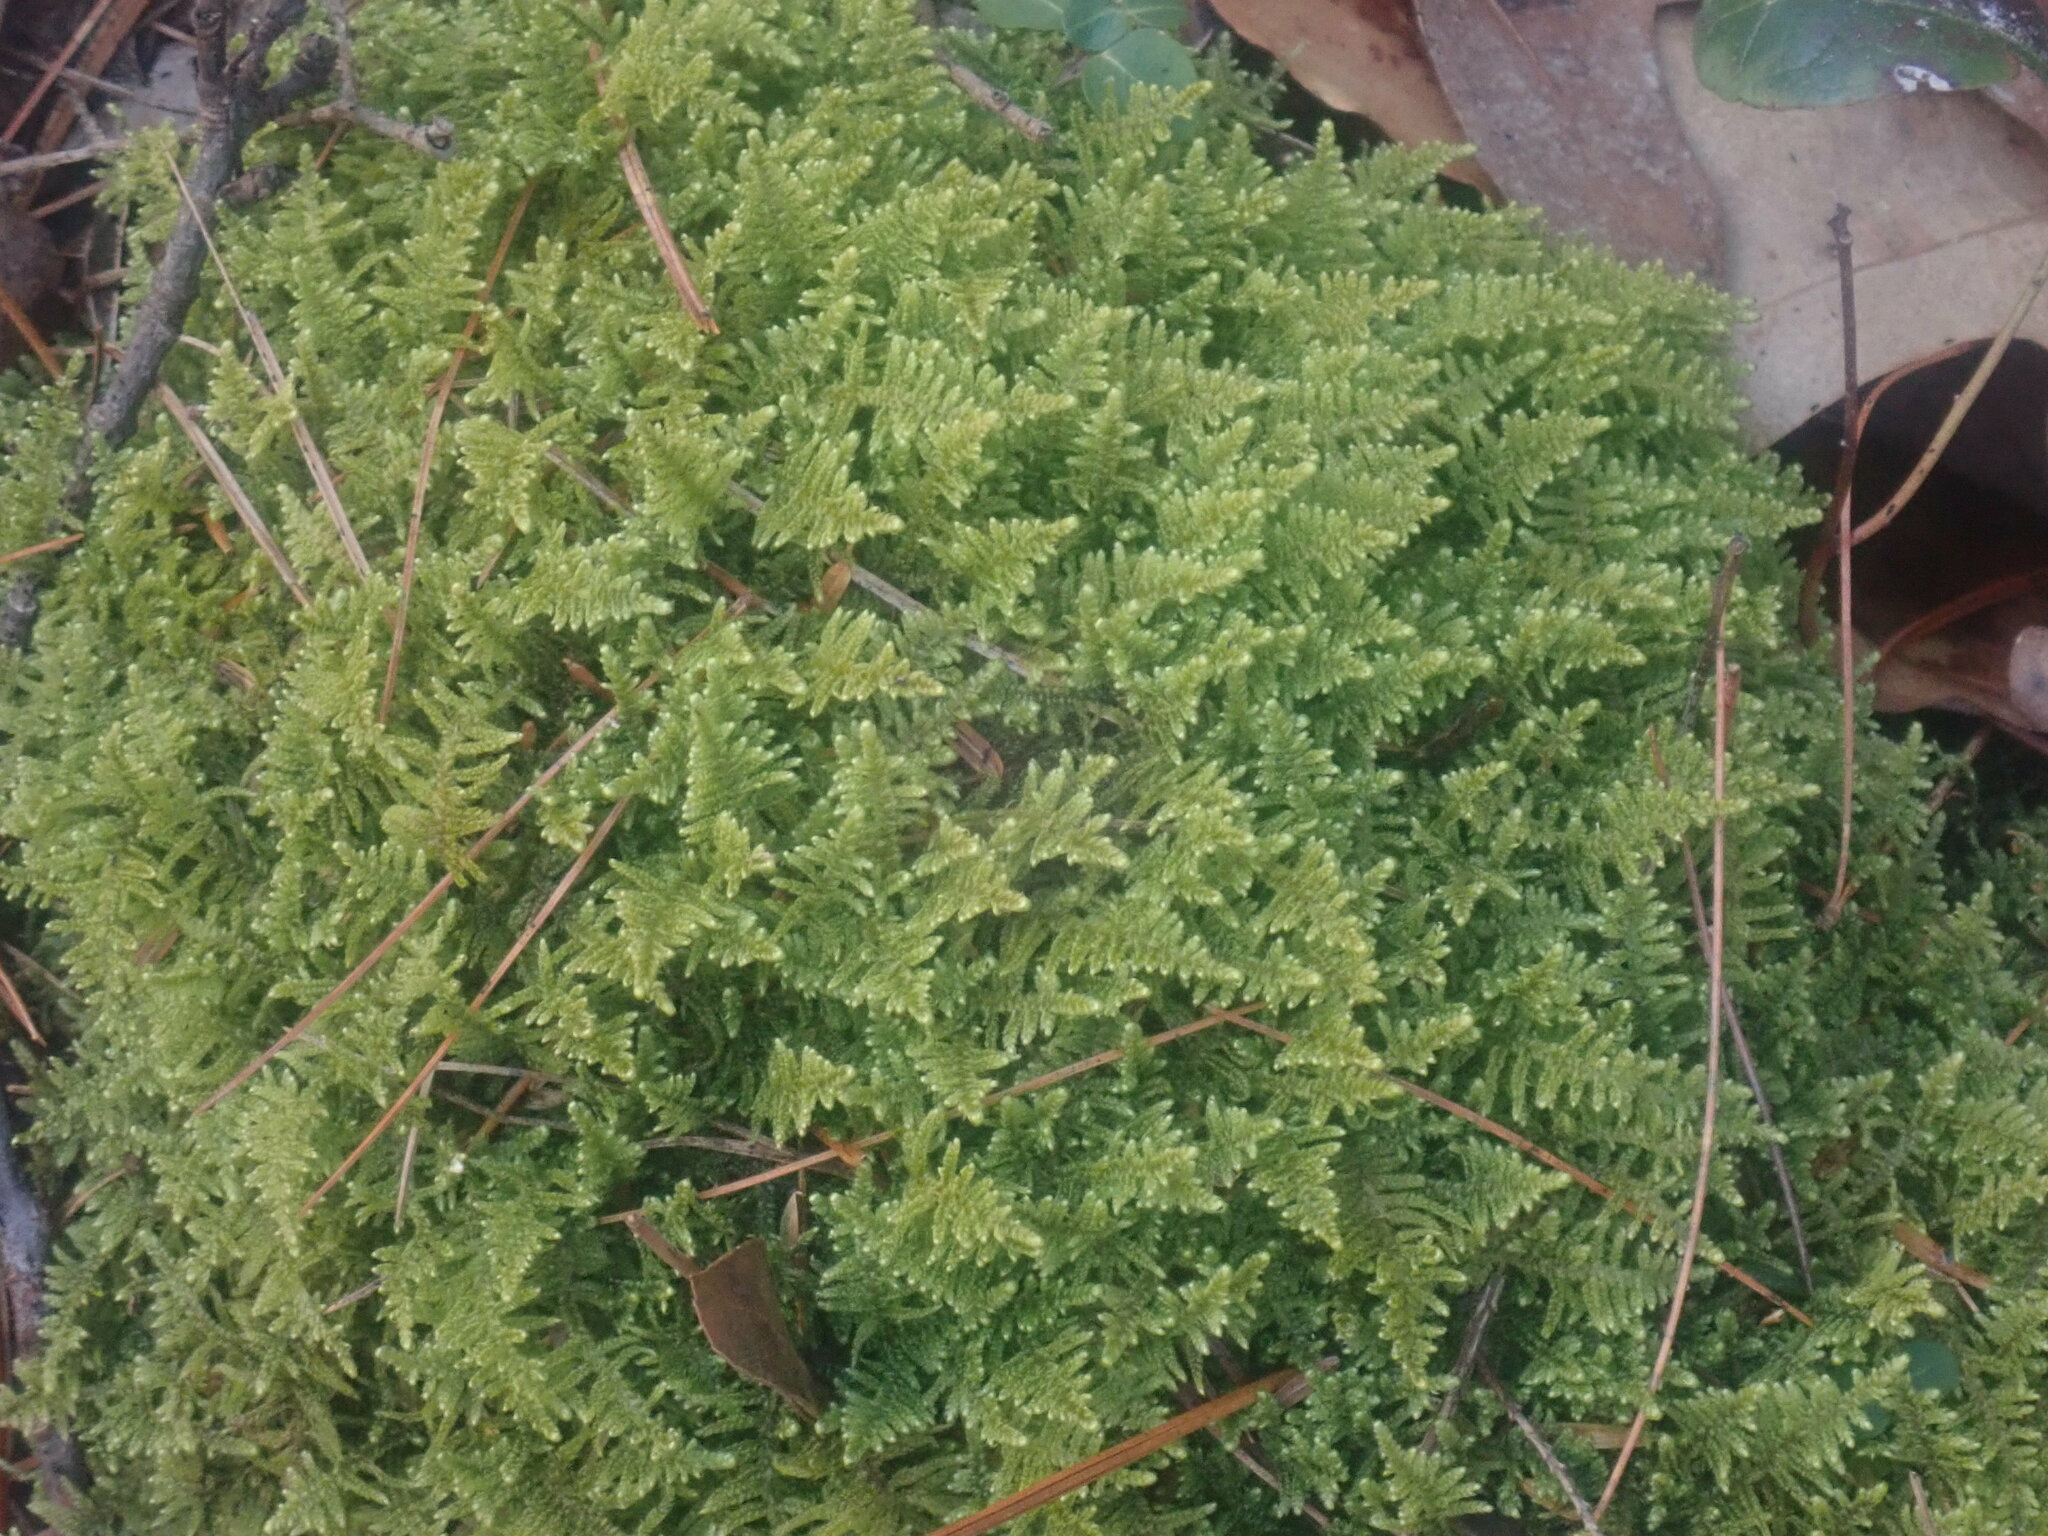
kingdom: Plantae
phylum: Bryophyta
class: Bryopsida
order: Hypnales
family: Callicladiaceae
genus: Callicladium
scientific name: Callicladium imponens
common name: Brocade moss
